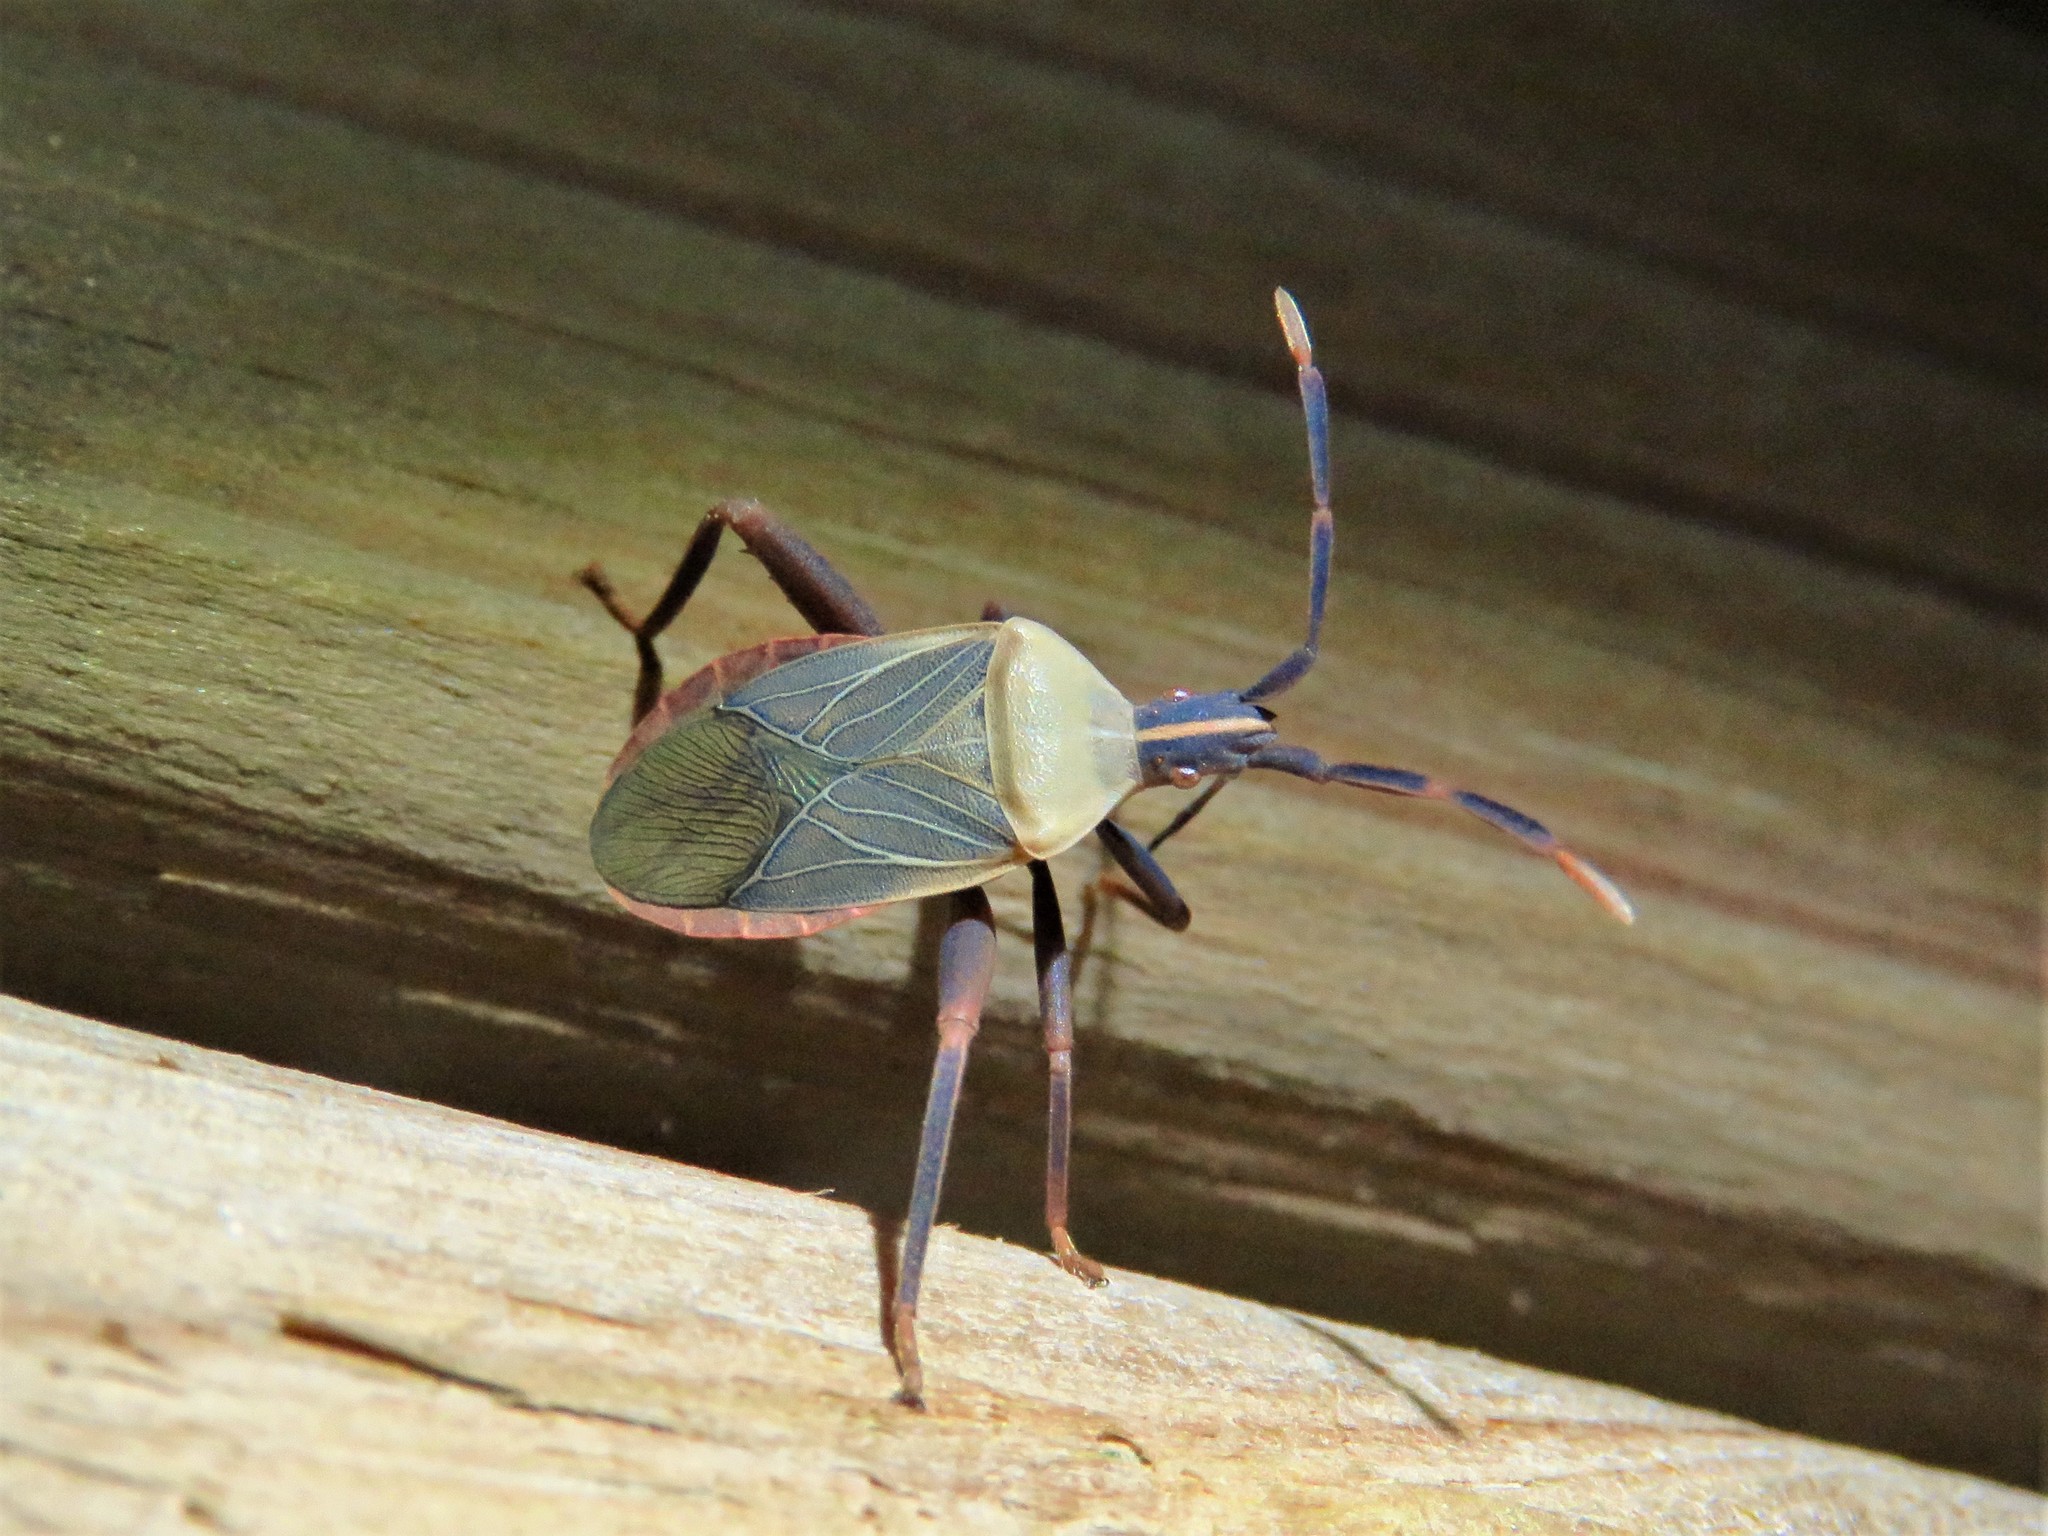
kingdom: Animalia
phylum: Arthropoda
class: Insecta
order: Hemiptera
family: Coreidae
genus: Chelinidea
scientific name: Chelinidea vittiger
